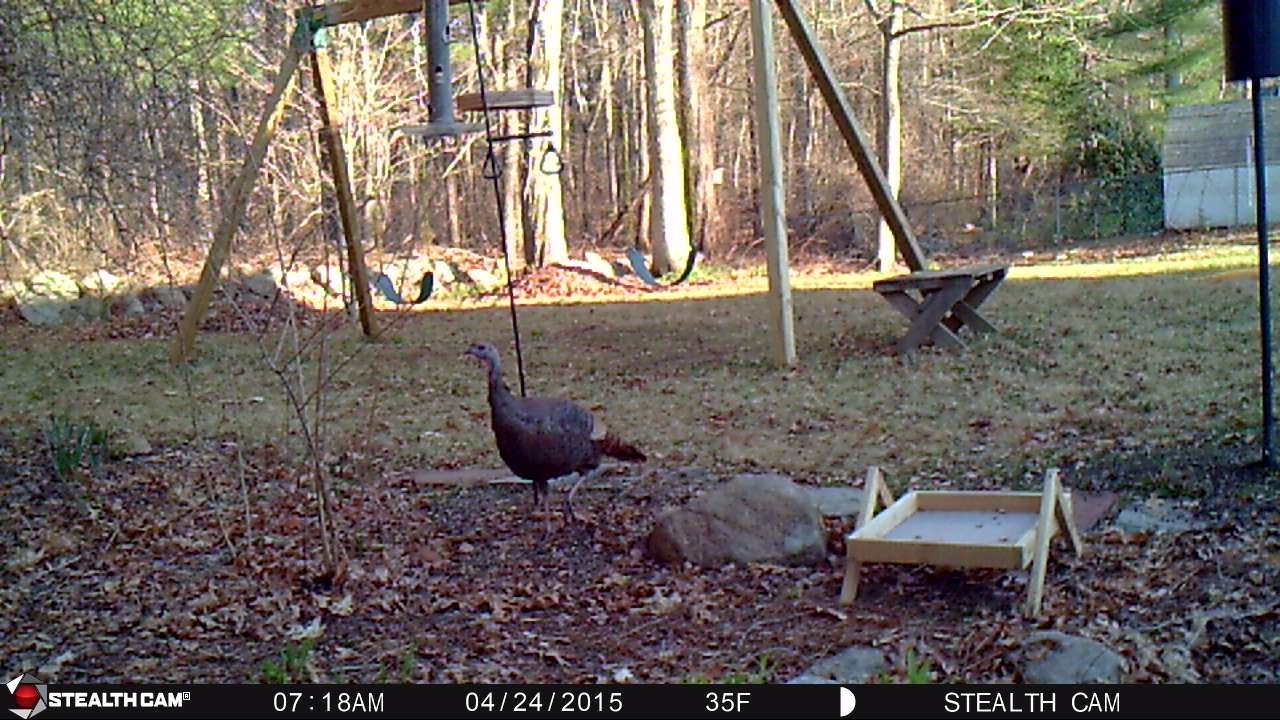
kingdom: Animalia
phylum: Chordata
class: Aves
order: Galliformes
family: Phasianidae
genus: Meleagris
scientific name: Meleagris gallopavo
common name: Wild turkey
